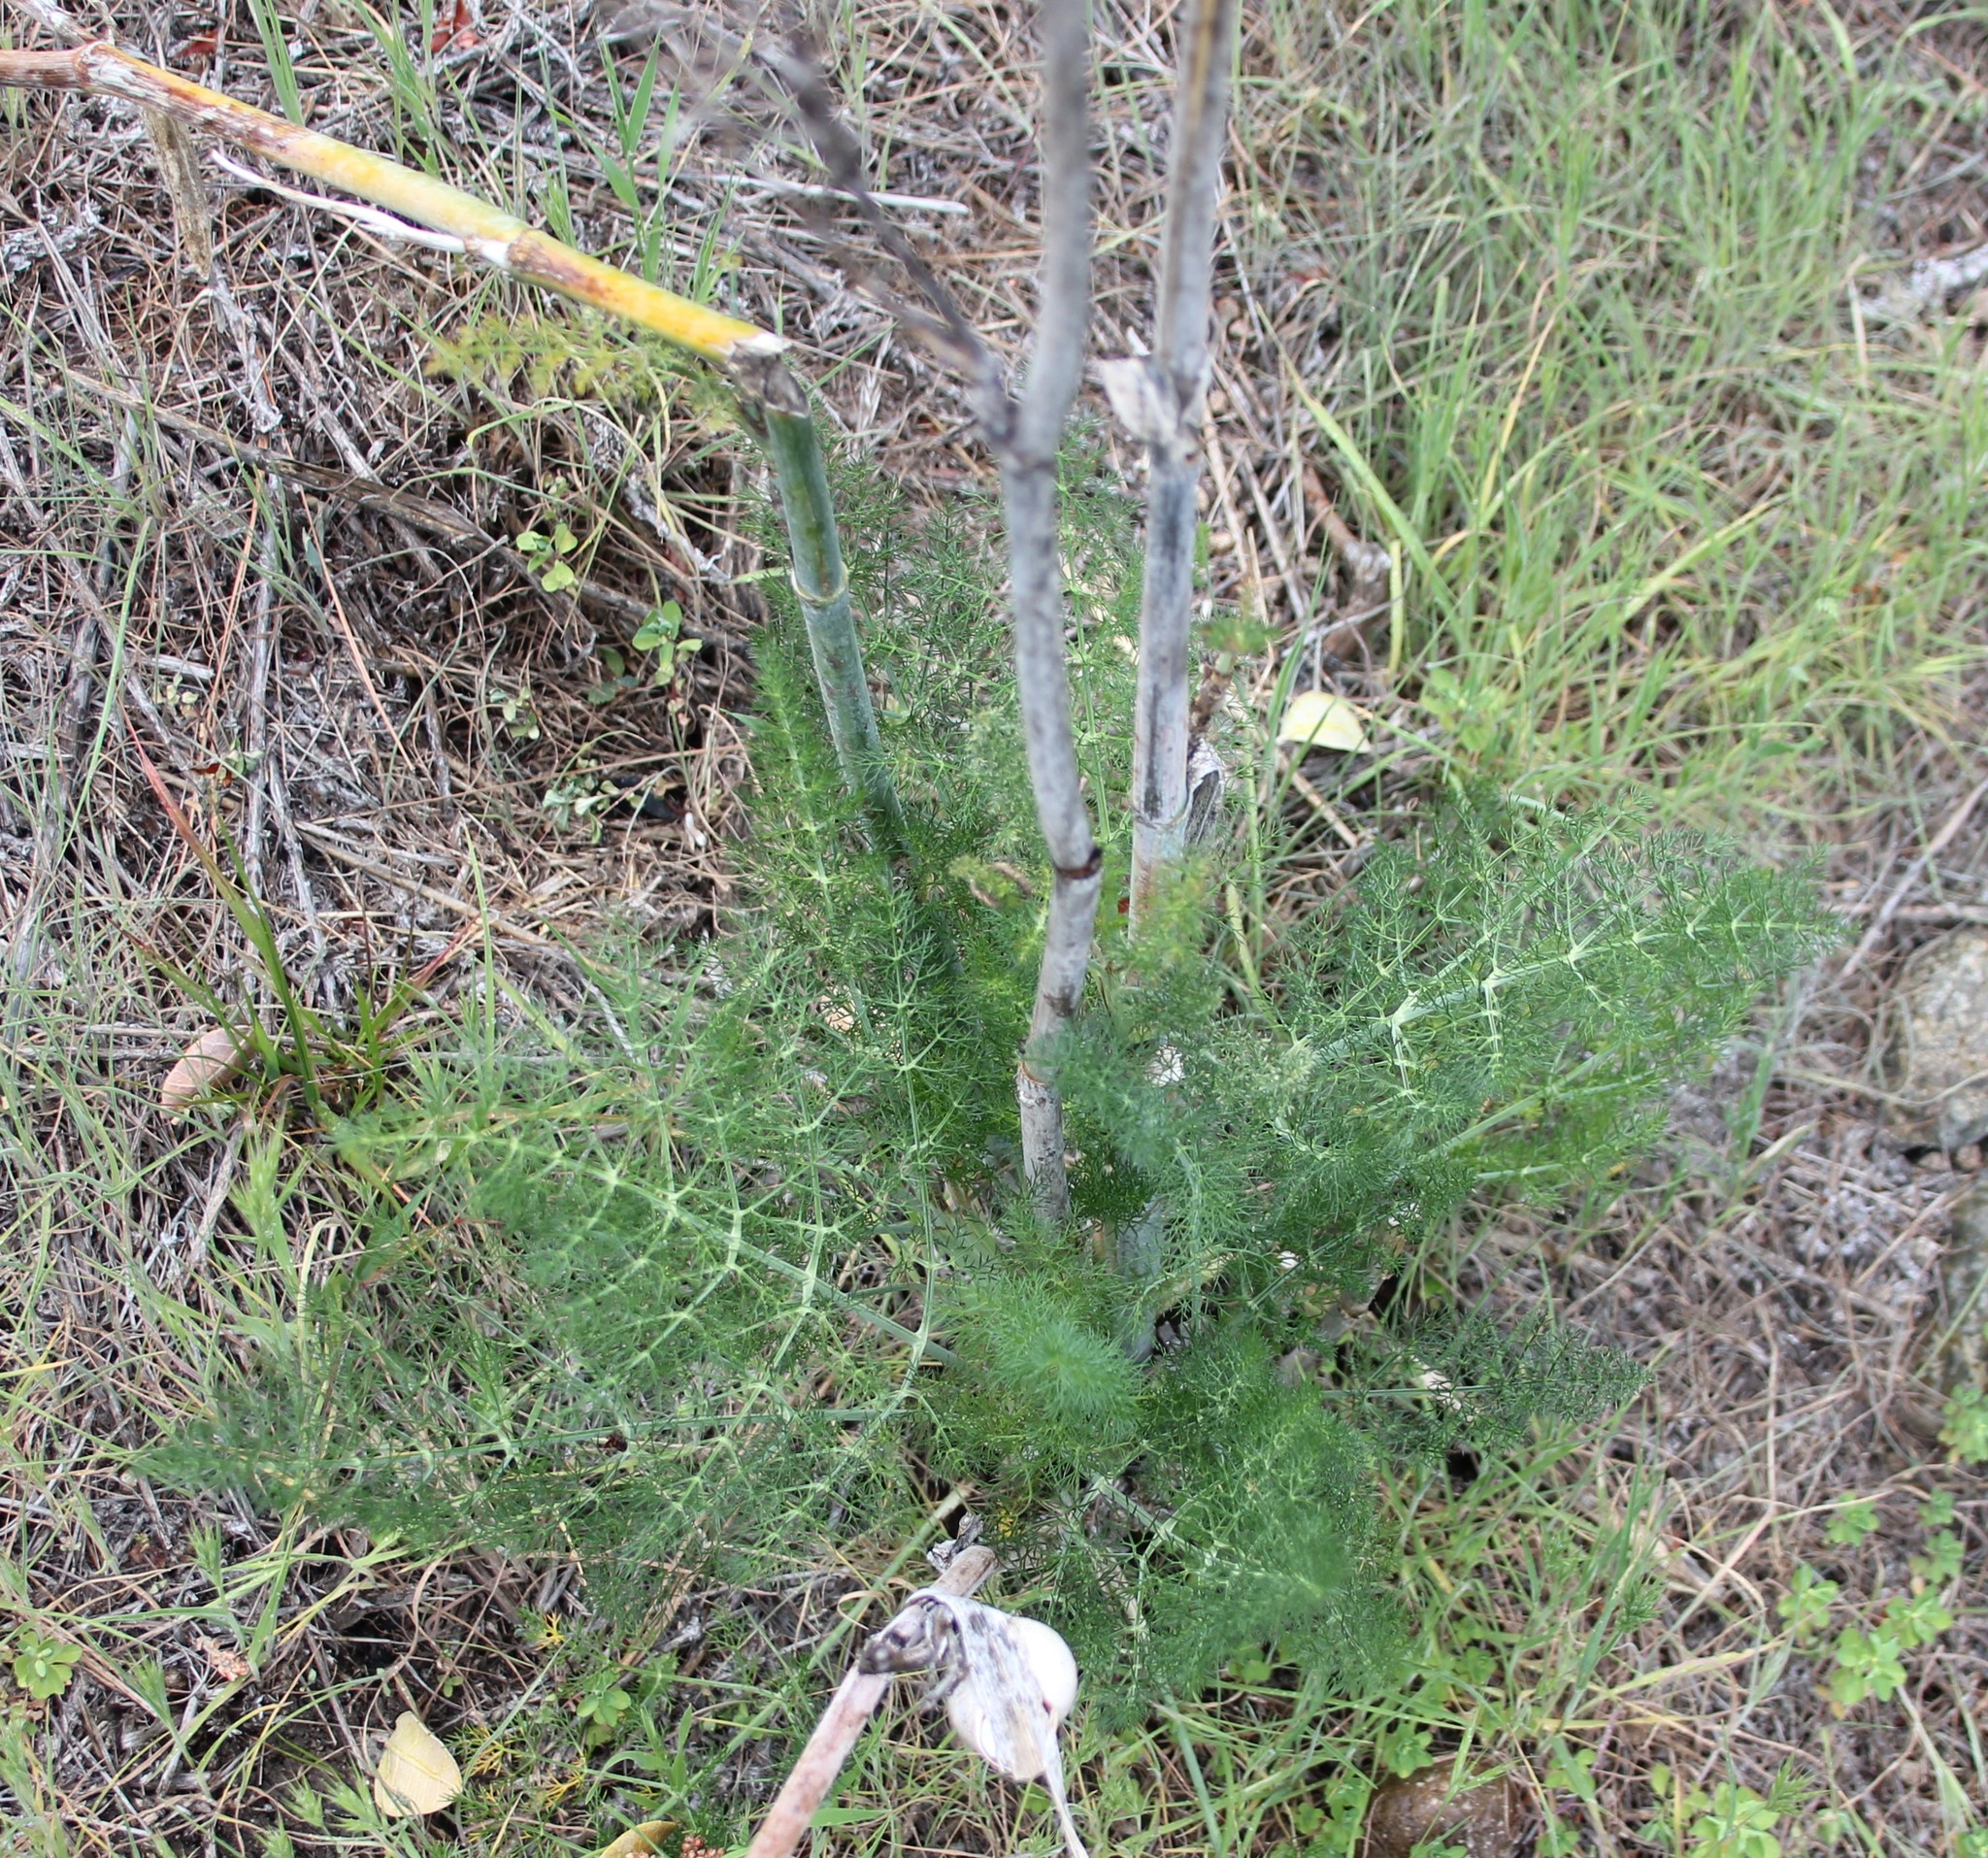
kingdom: Plantae
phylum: Tracheophyta
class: Magnoliopsida
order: Apiales
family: Apiaceae
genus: Foeniculum
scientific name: Foeniculum vulgare
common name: Fennel
